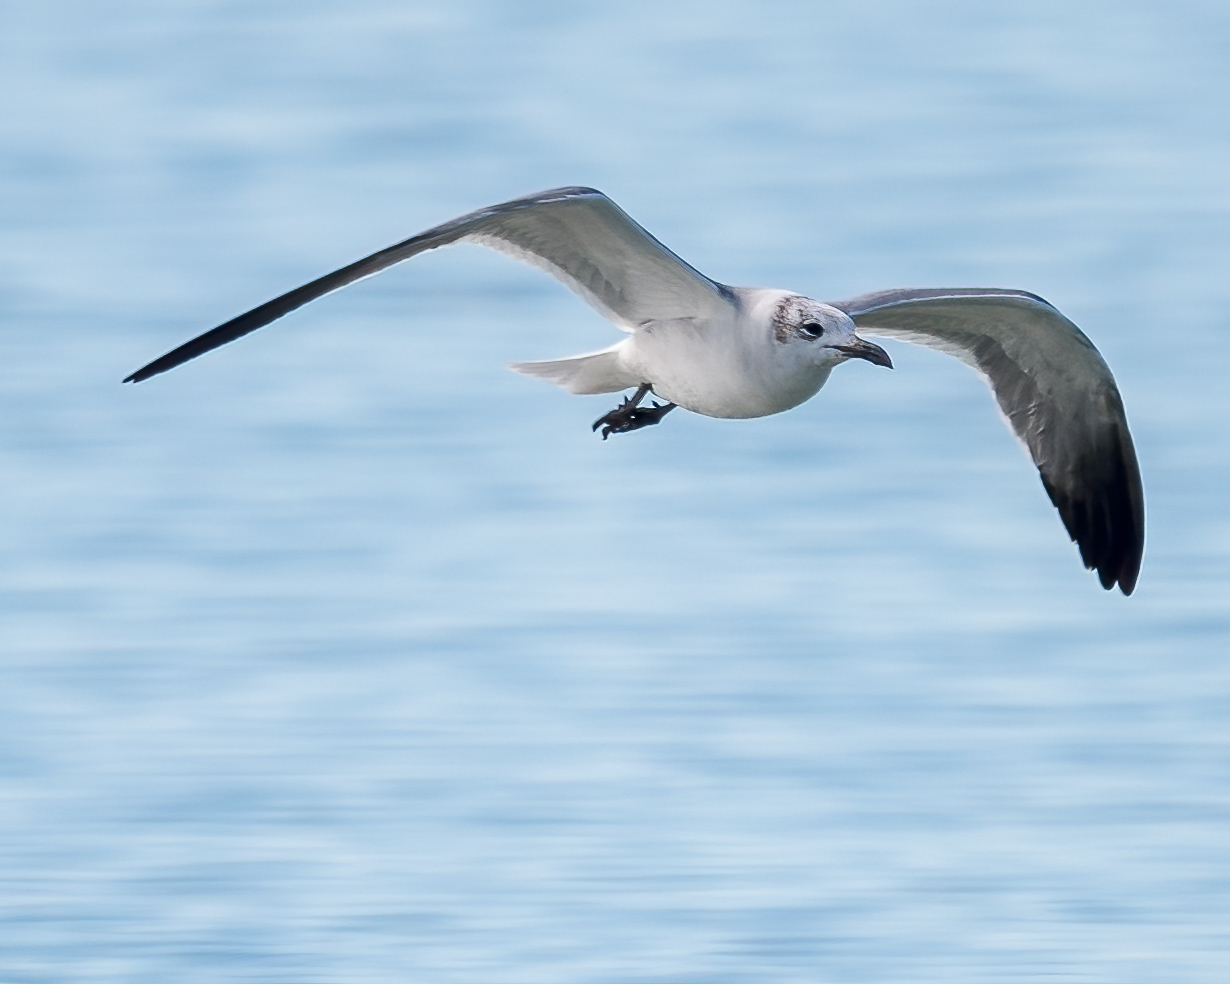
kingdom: Animalia
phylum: Chordata
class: Aves
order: Charadriiformes
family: Laridae
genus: Leucophaeus
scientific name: Leucophaeus atricilla
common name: Laughing gull
